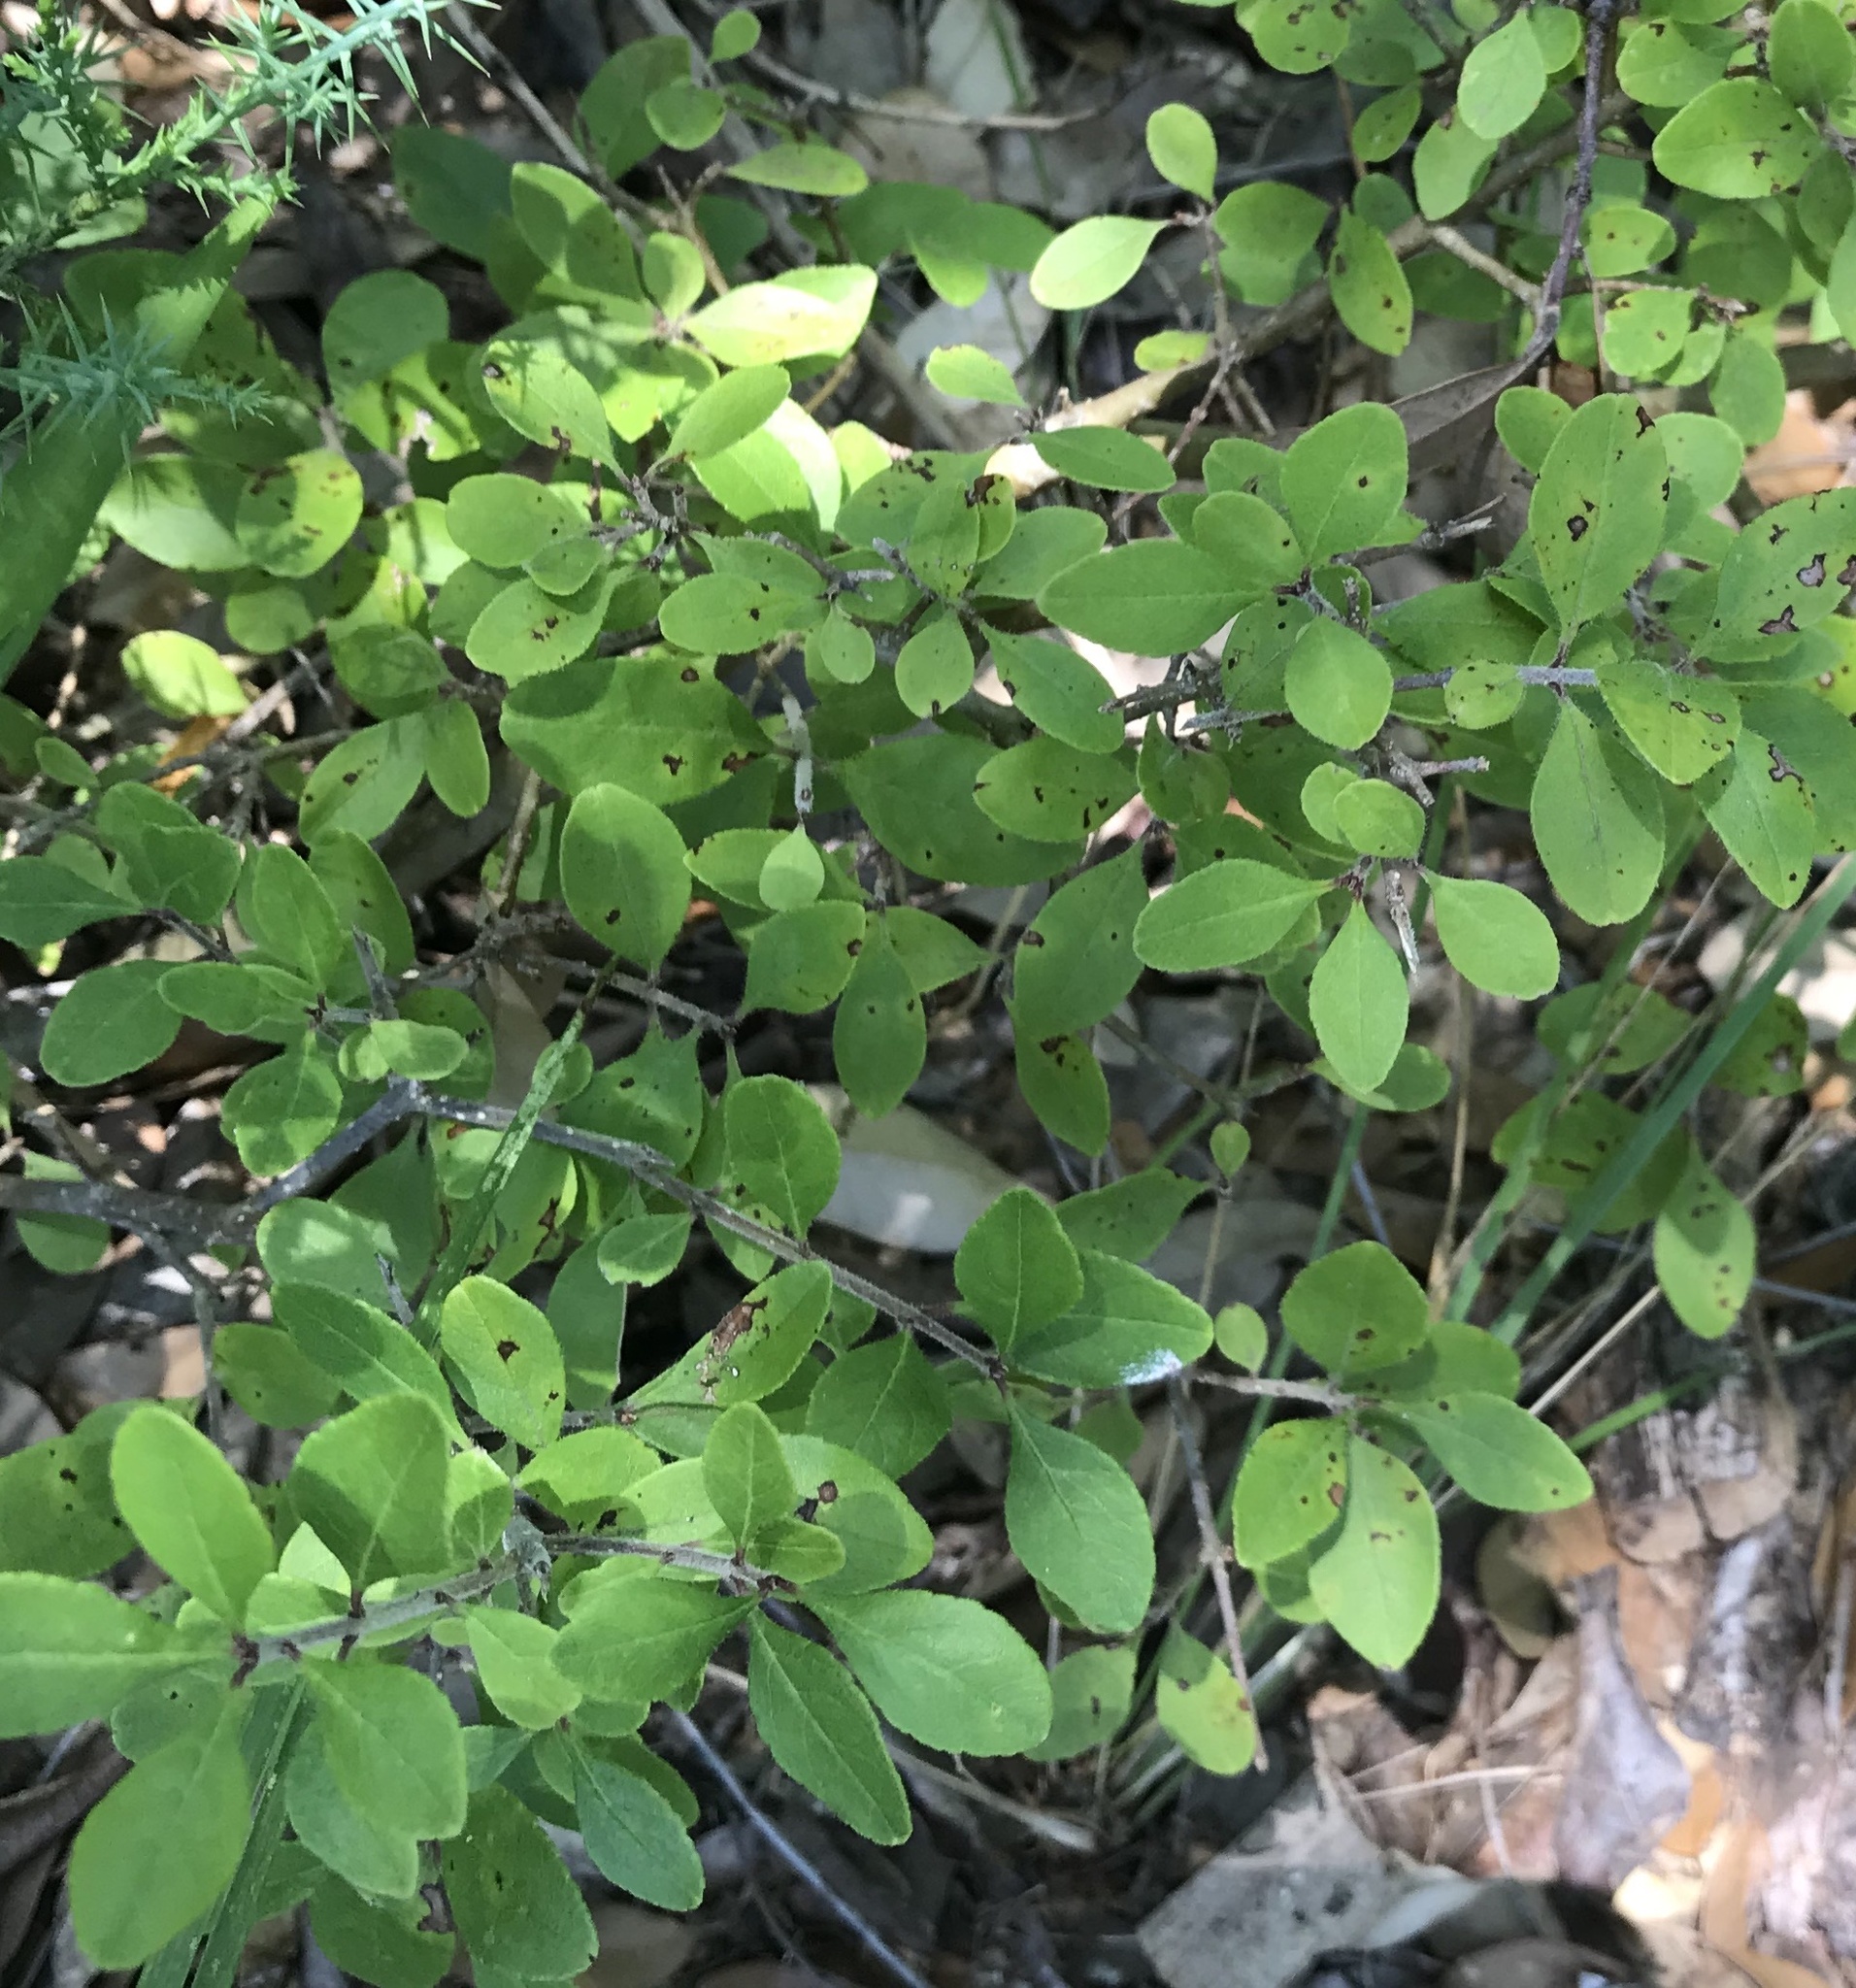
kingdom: Plantae
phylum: Tracheophyta
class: Magnoliopsida
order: Lamiales
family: Oleaceae
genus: Forestiera
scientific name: Forestiera pubescens
